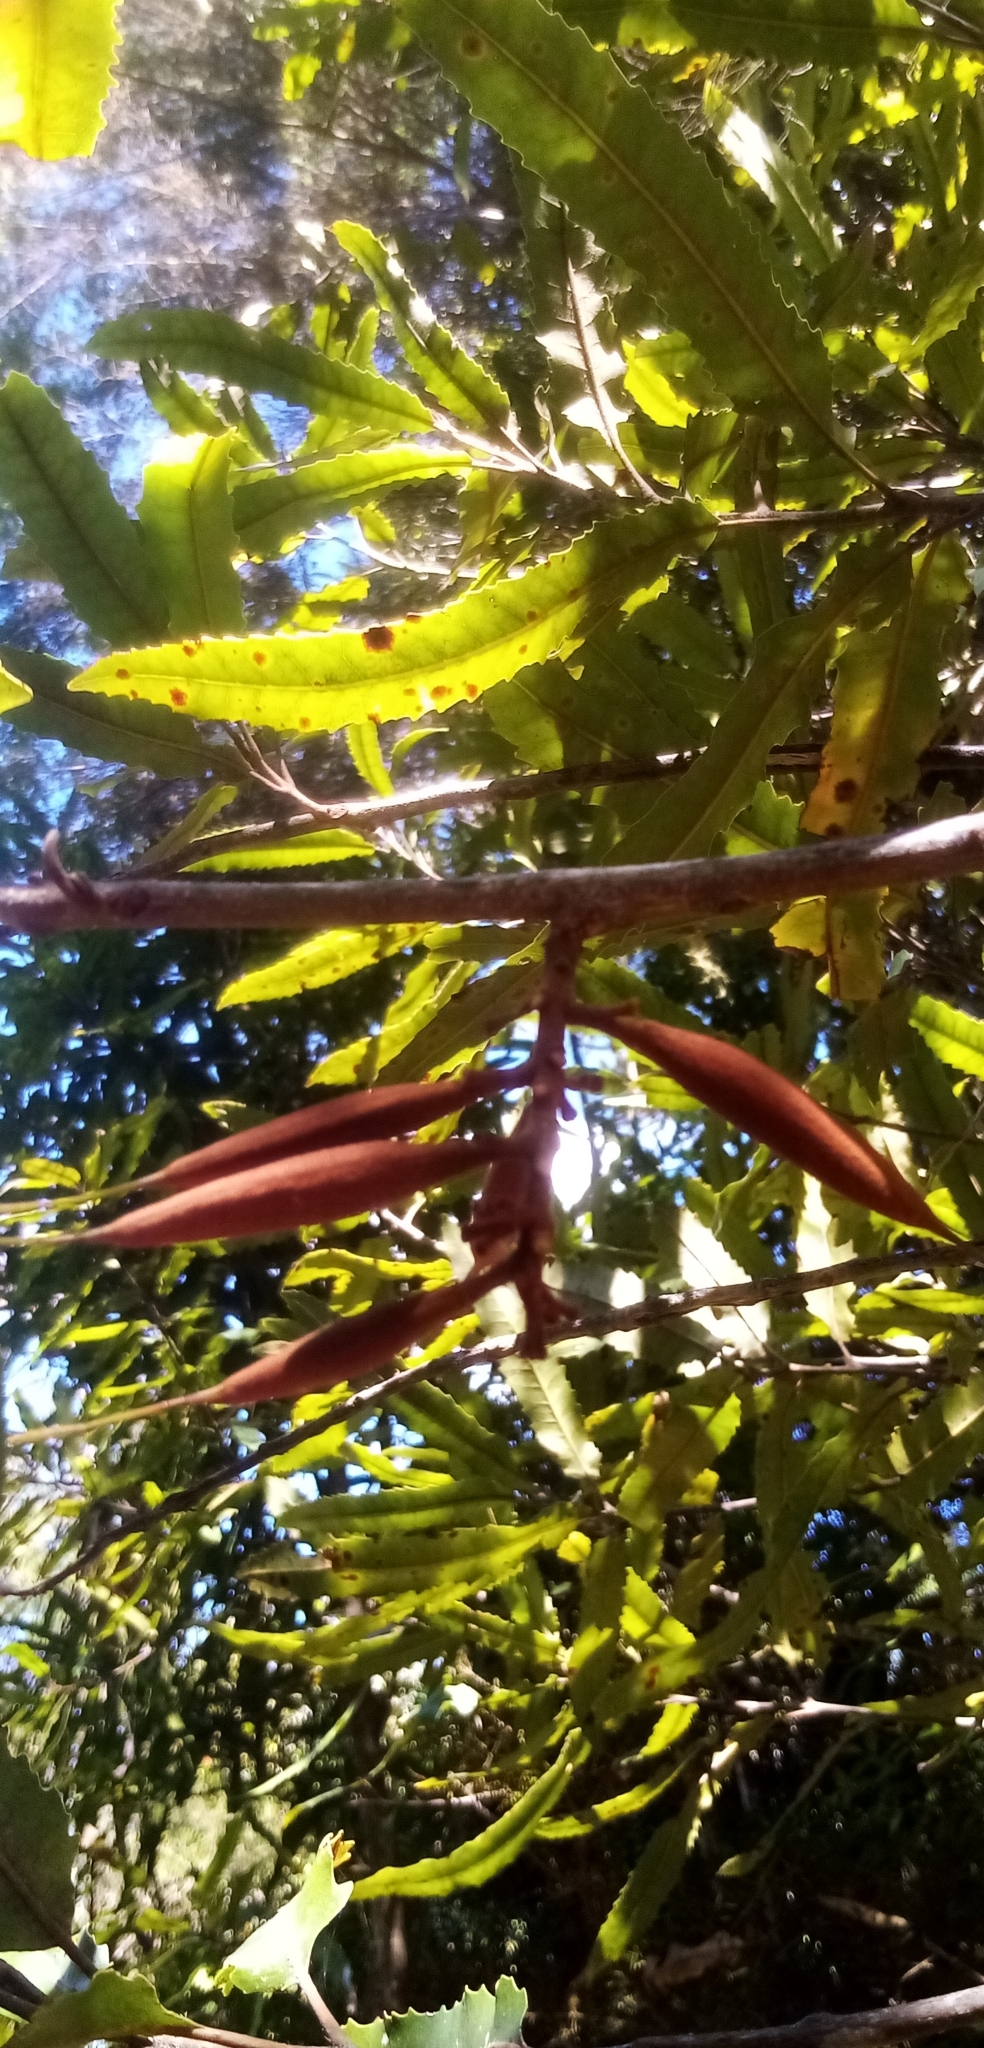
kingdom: Plantae
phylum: Tracheophyta
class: Magnoliopsida
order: Proteales
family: Proteaceae
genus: Knightia
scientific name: Knightia excelsa
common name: New zealand-honeysuckle
